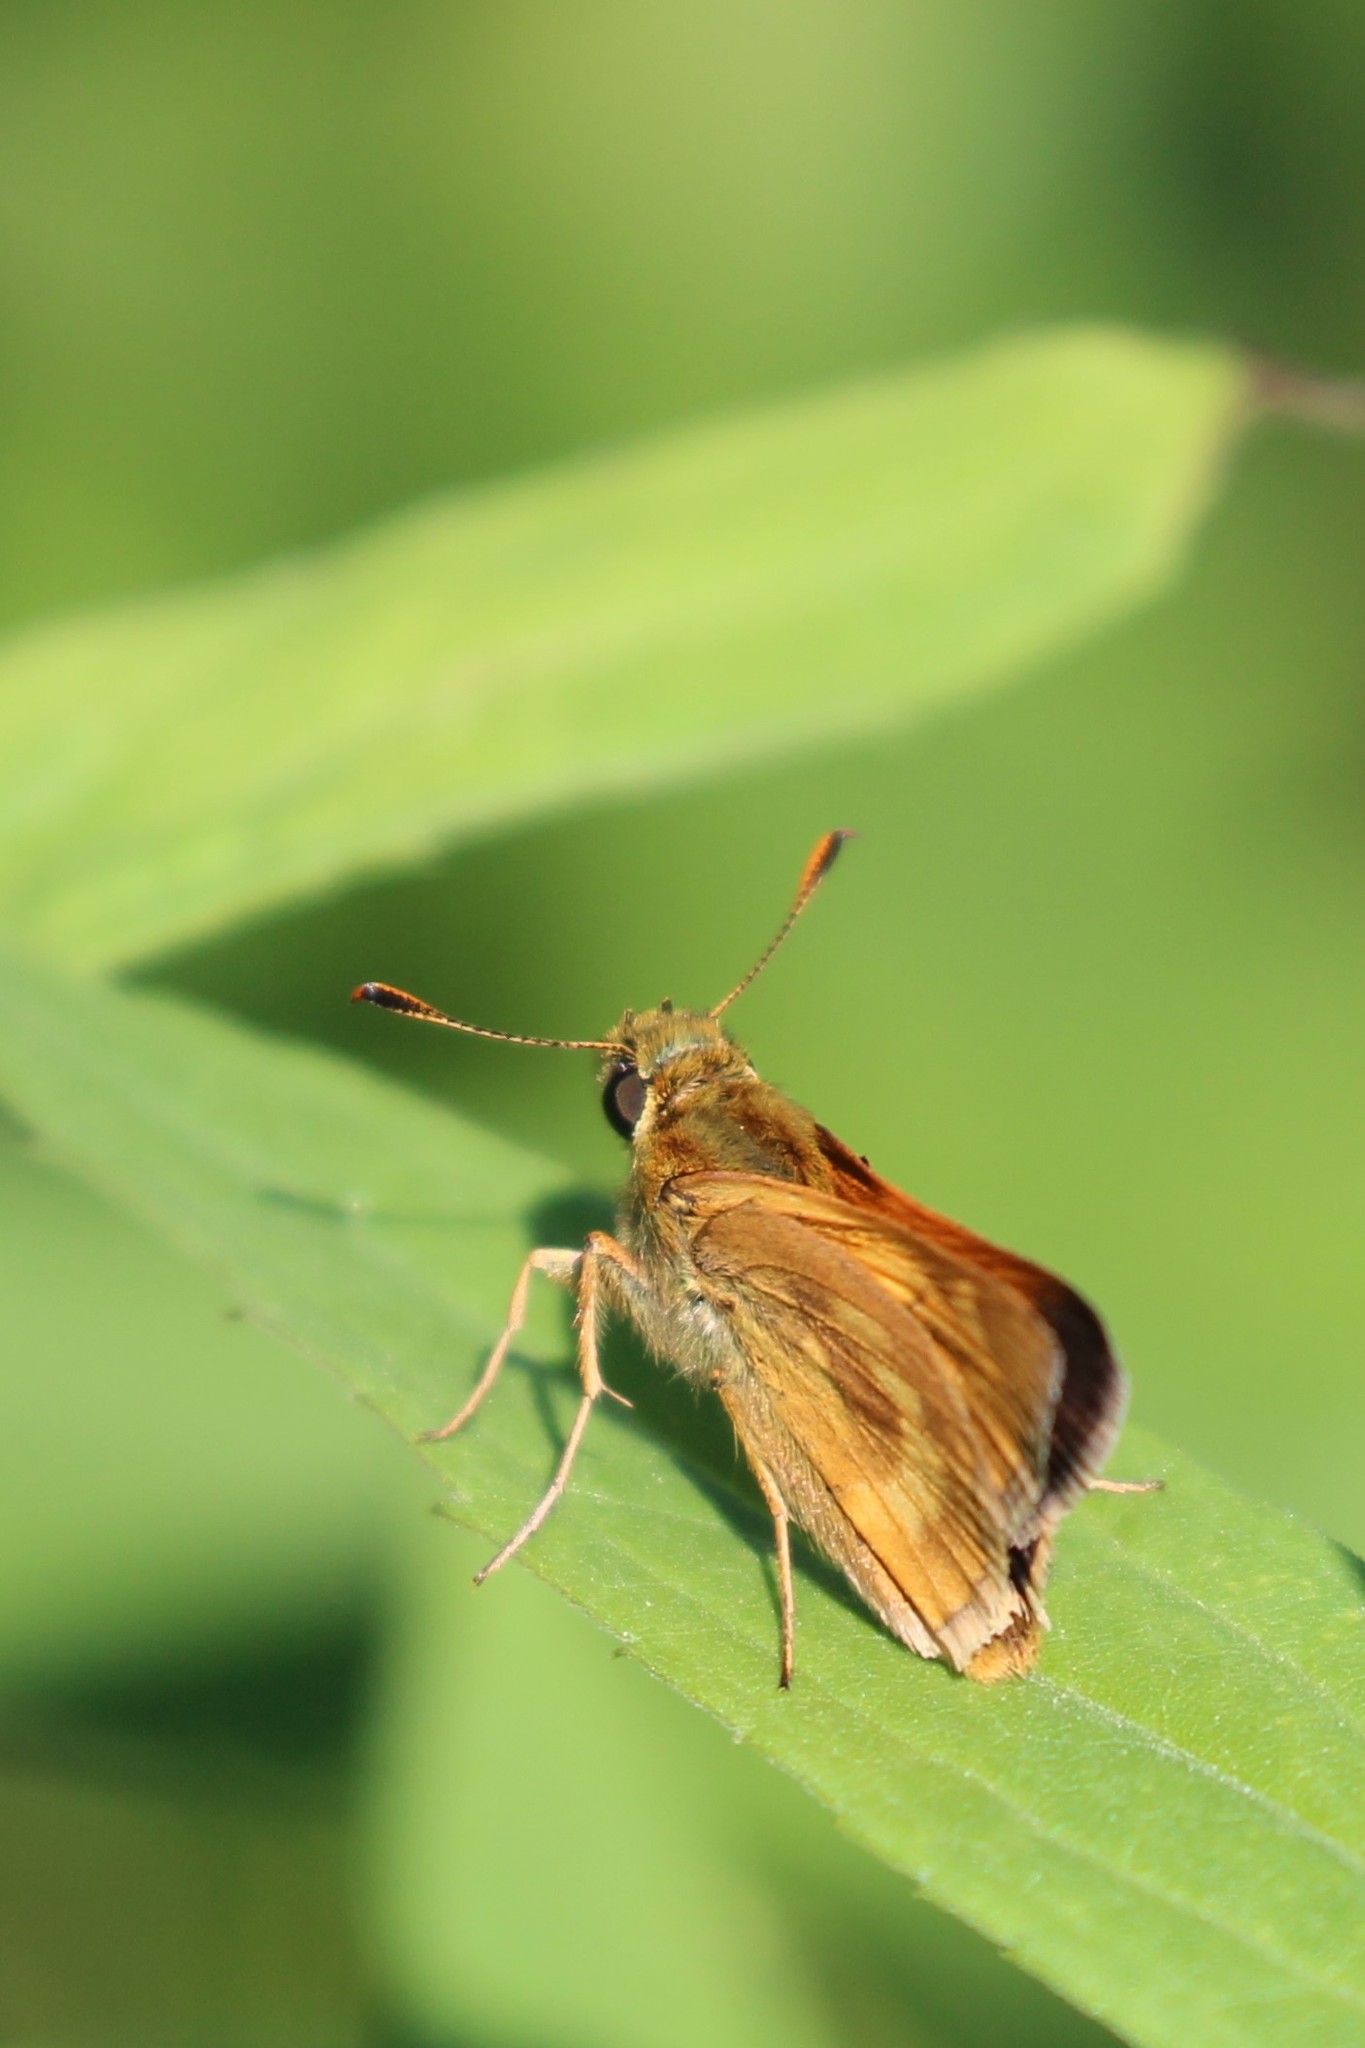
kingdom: Animalia
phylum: Arthropoda
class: Insecta
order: Lepidoptera
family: Hesperiidae
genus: Polites
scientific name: Polites mystic
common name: Long dash
